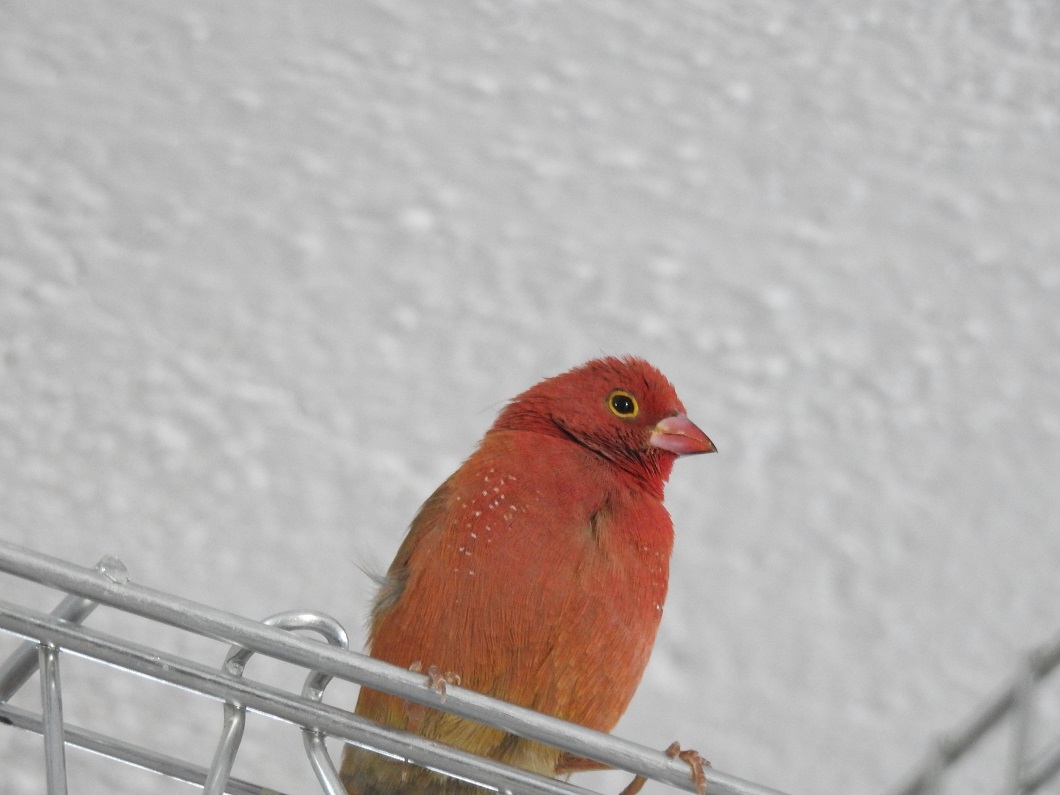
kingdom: Animalia
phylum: Chordata
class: Aves
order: Passeriformes
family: Estrildidae
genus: Lagonosticta
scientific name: Lagonosticta senegala
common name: Red-billed firefinch
